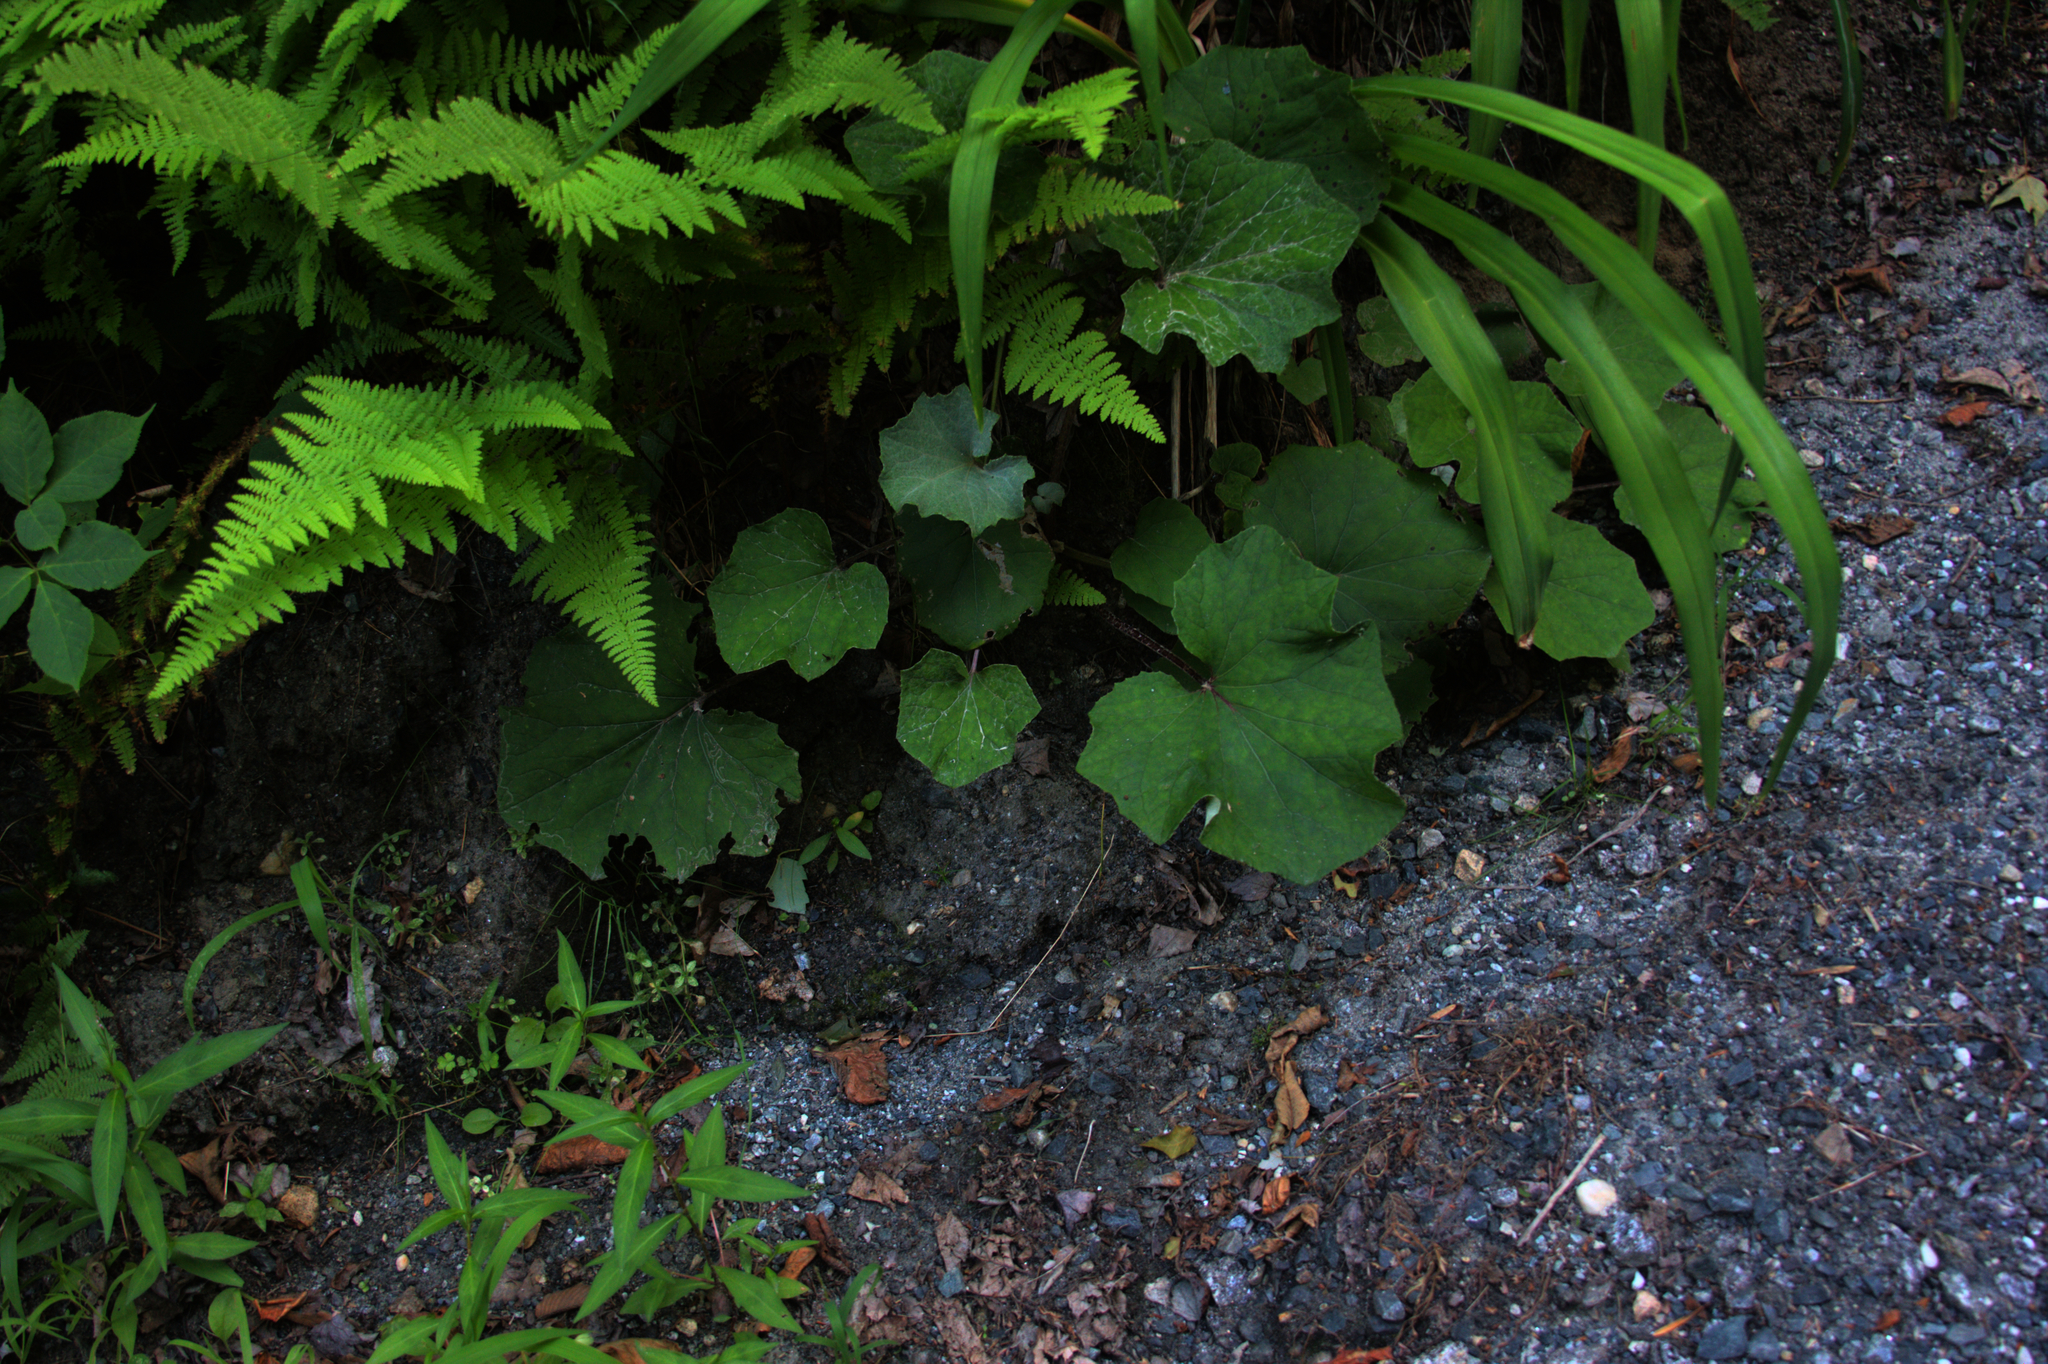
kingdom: Plantae
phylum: Tracheophyta
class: Magnoliopsida
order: Asterales
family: Asteraceae
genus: Tussilago
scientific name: Tussilago farfara
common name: Coltsfoot
